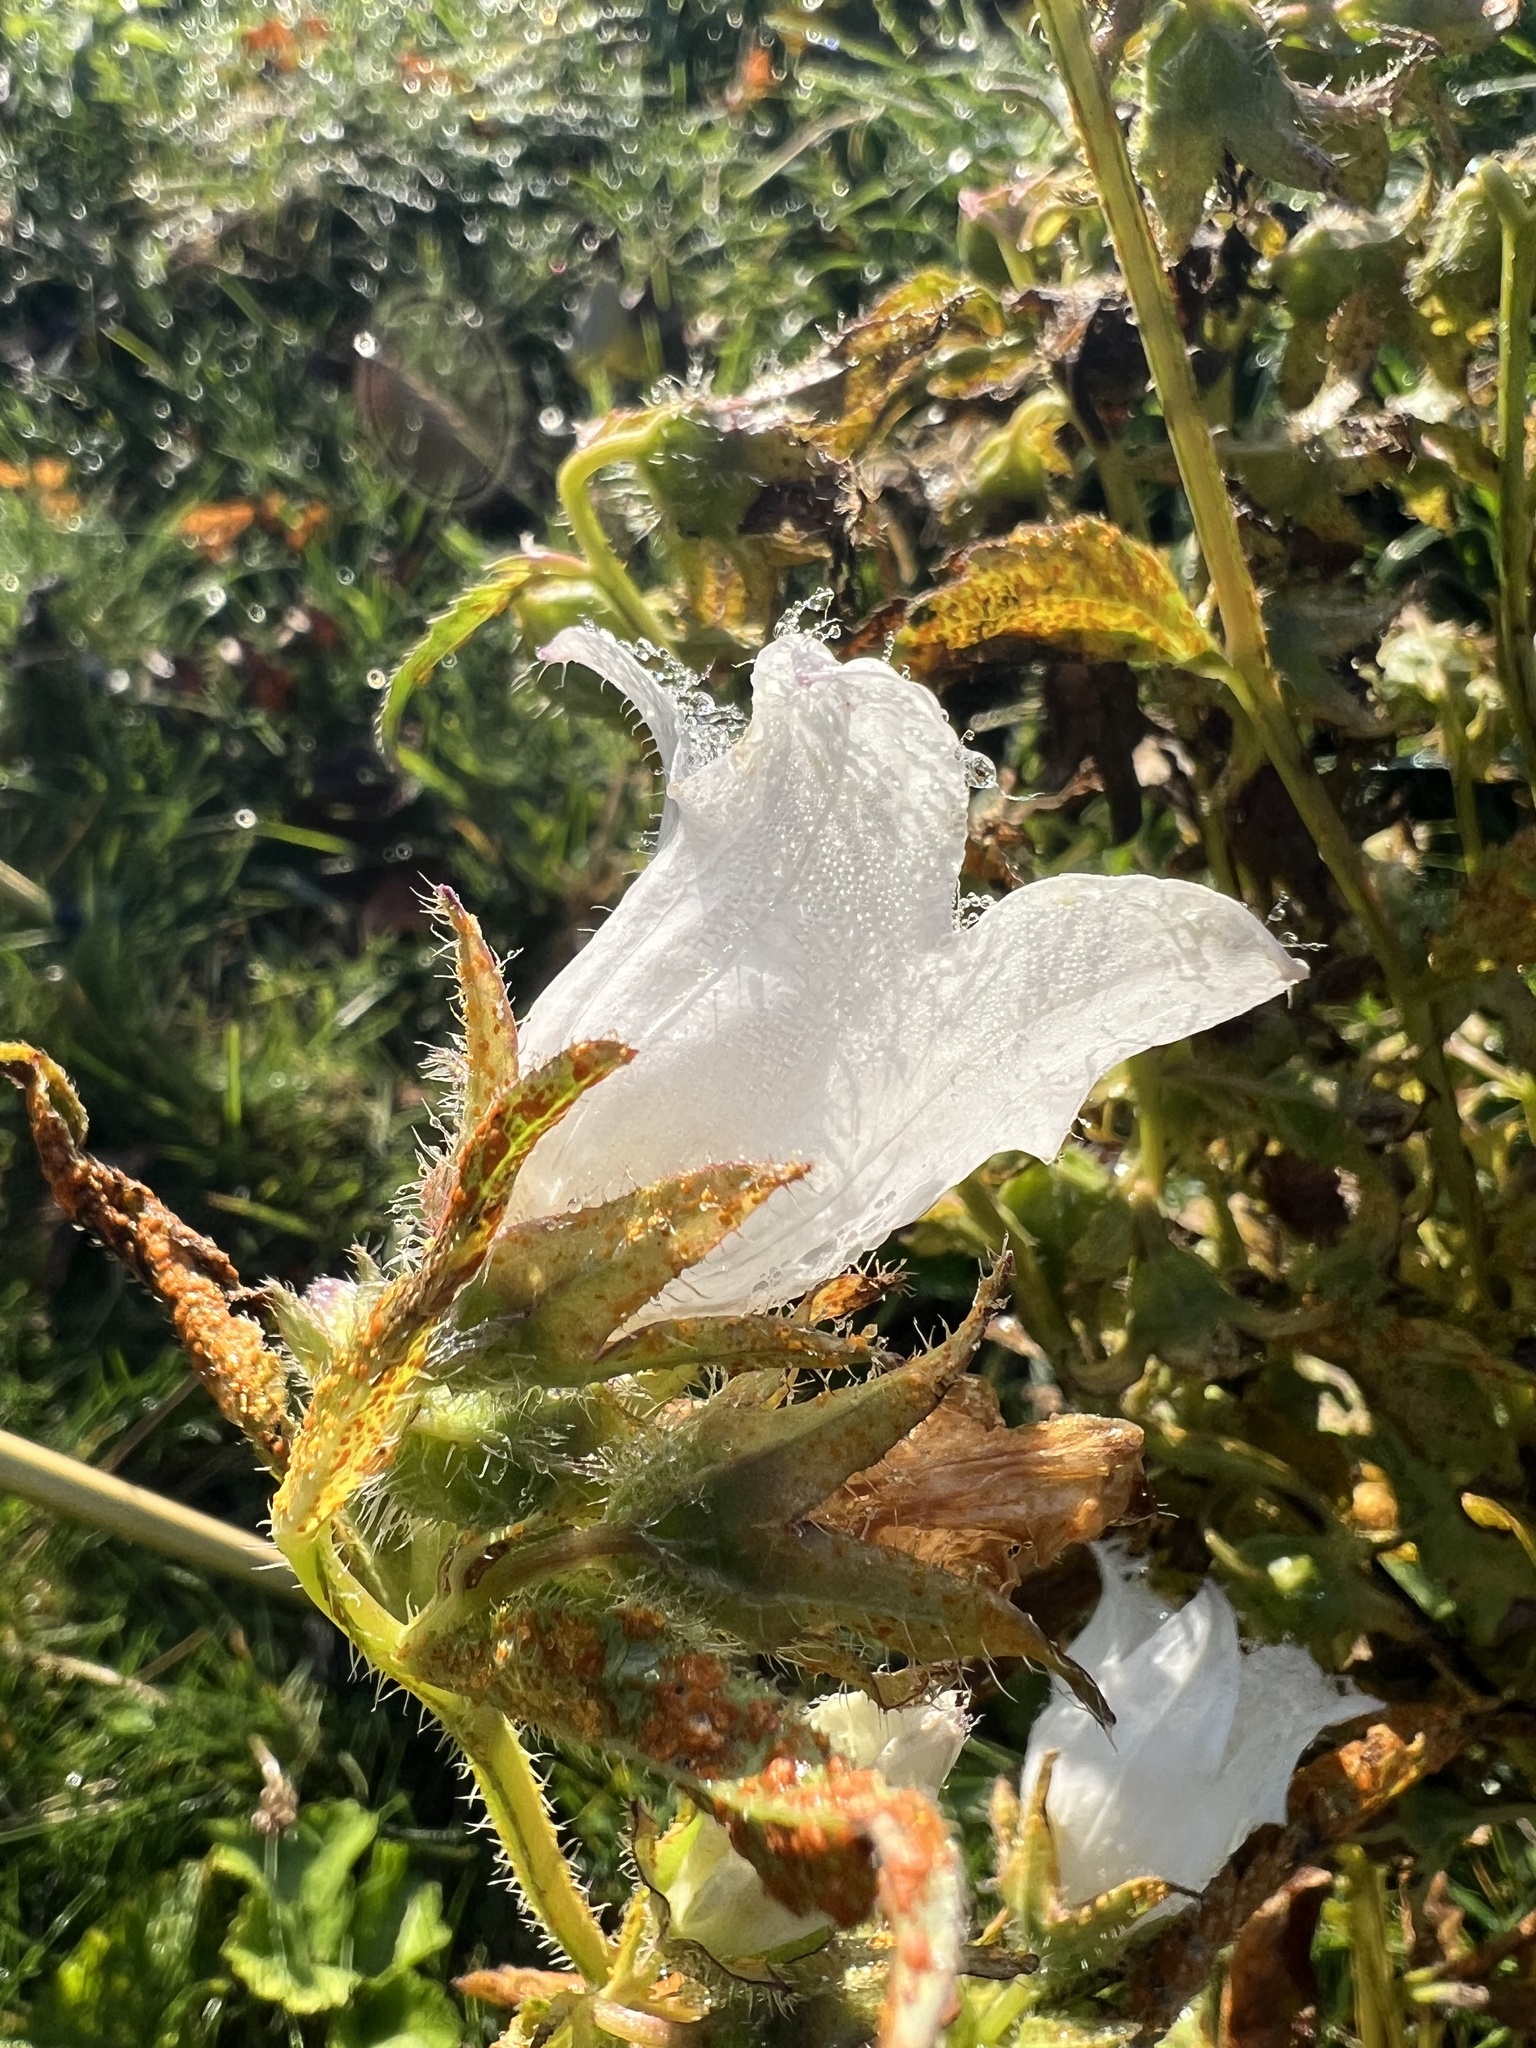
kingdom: Plantae
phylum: Tracheophyta
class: Magnoliopsida
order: Asterales
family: Campanulaceae
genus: Campanula
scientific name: Campanula trachelium
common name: Nettle-leaved bellflower
